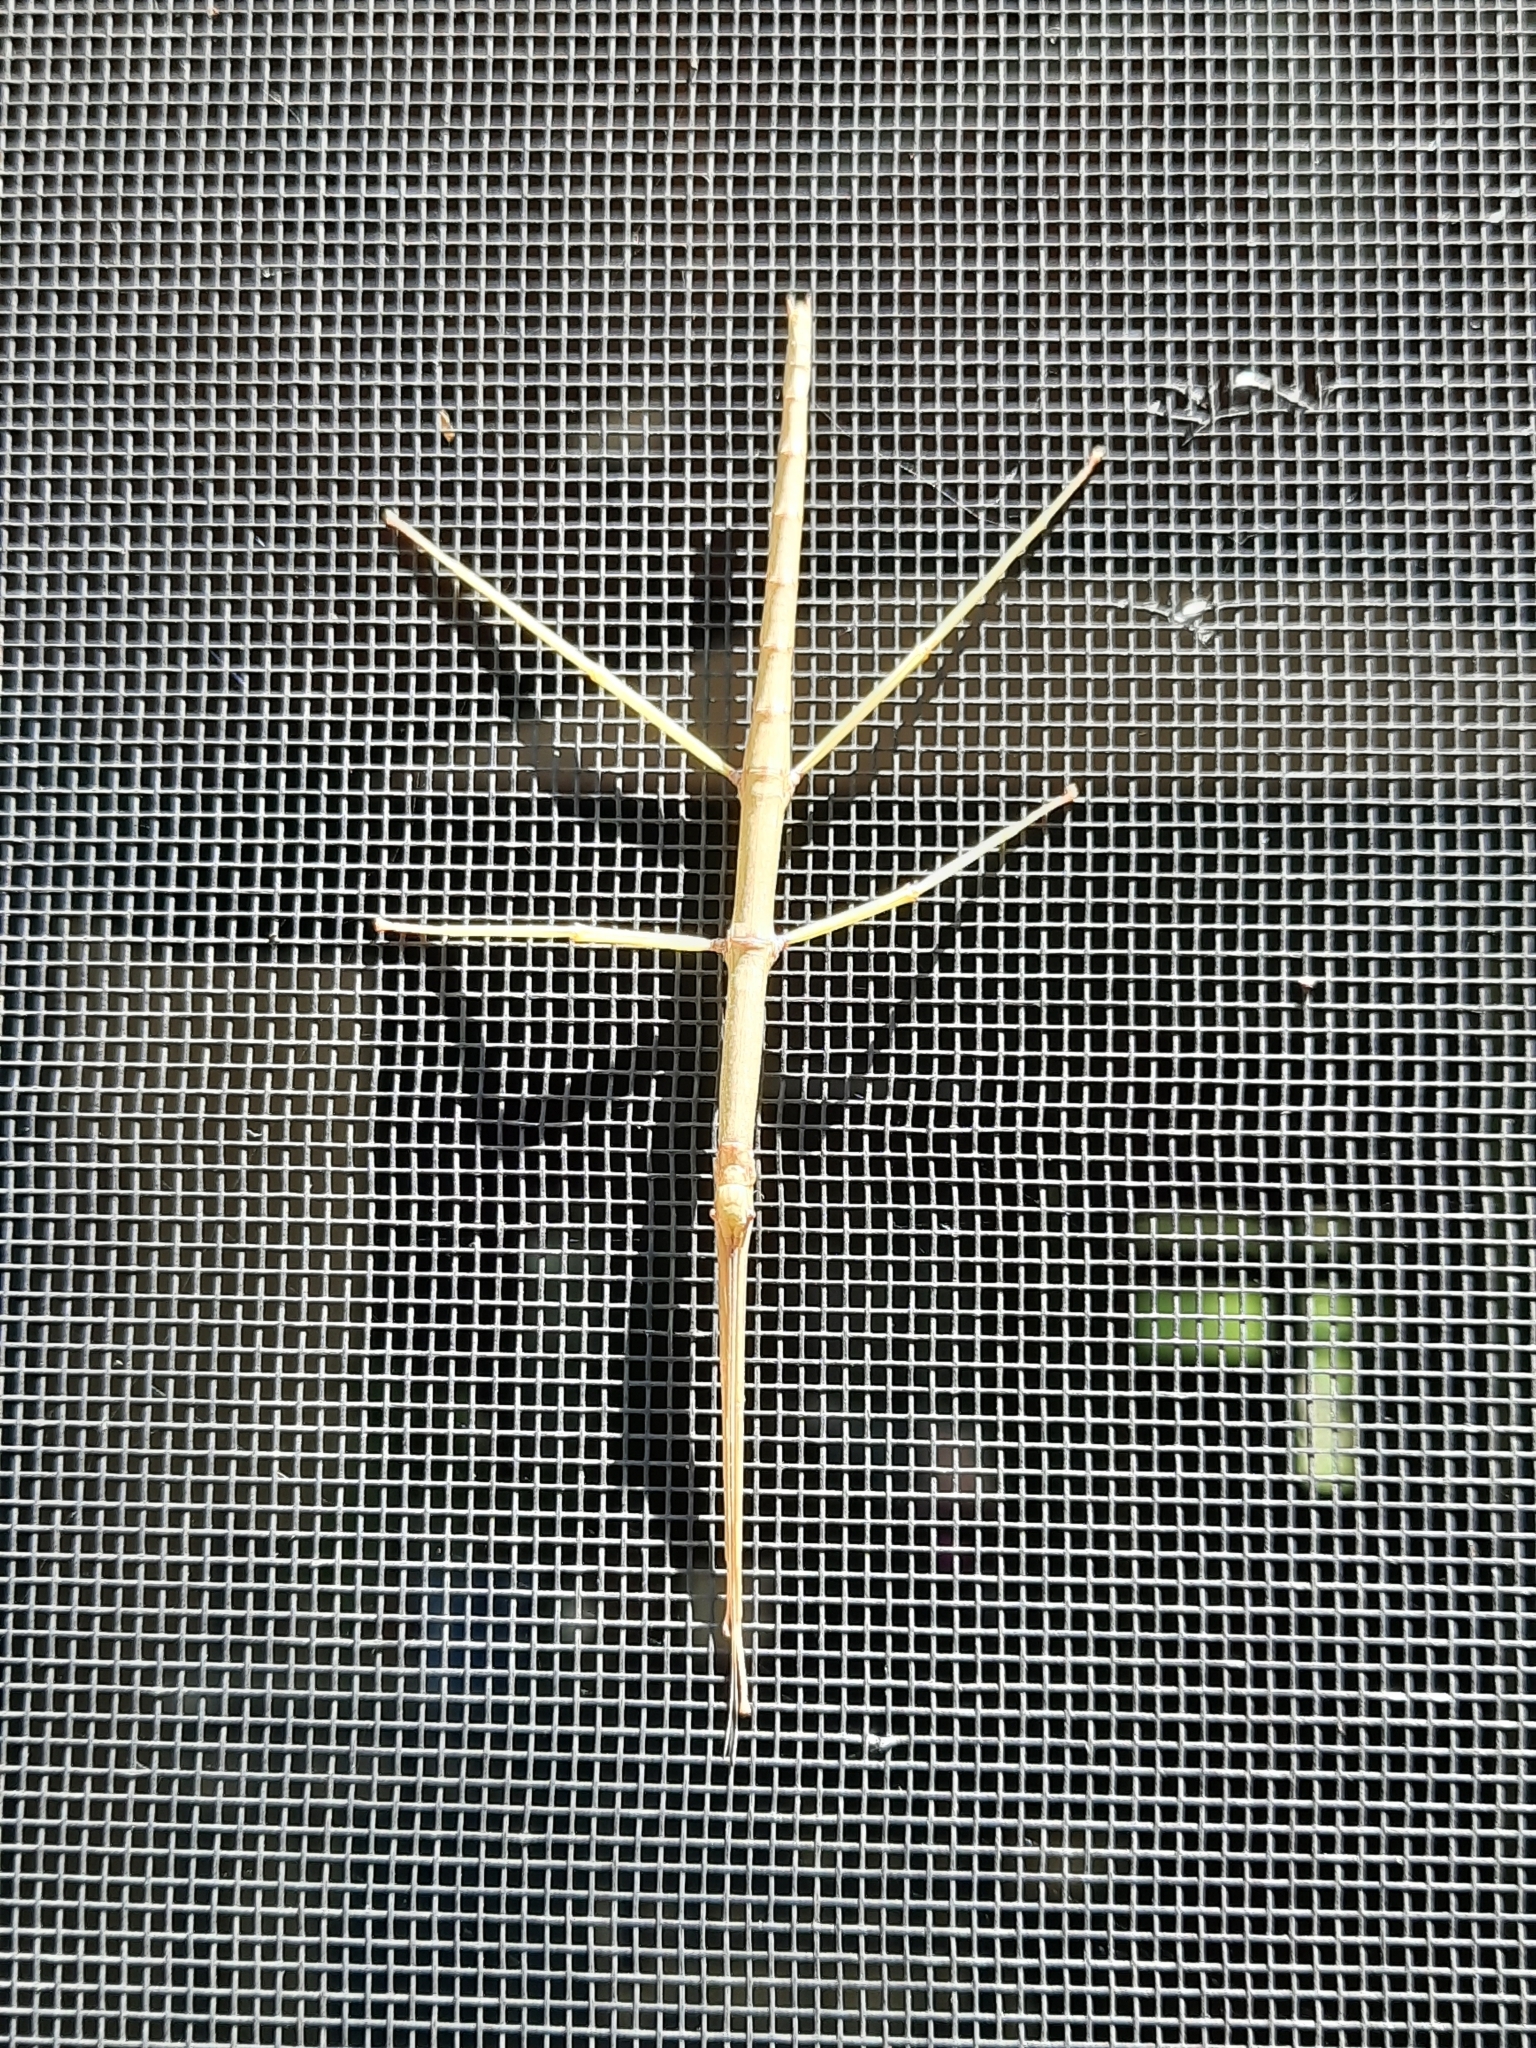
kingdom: Animalia
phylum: Arthropoda
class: Insecta
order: Phasmida
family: Diapheromeridae
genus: Diapheromera
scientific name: Diapheromera femorata
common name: Common american walkingstick
